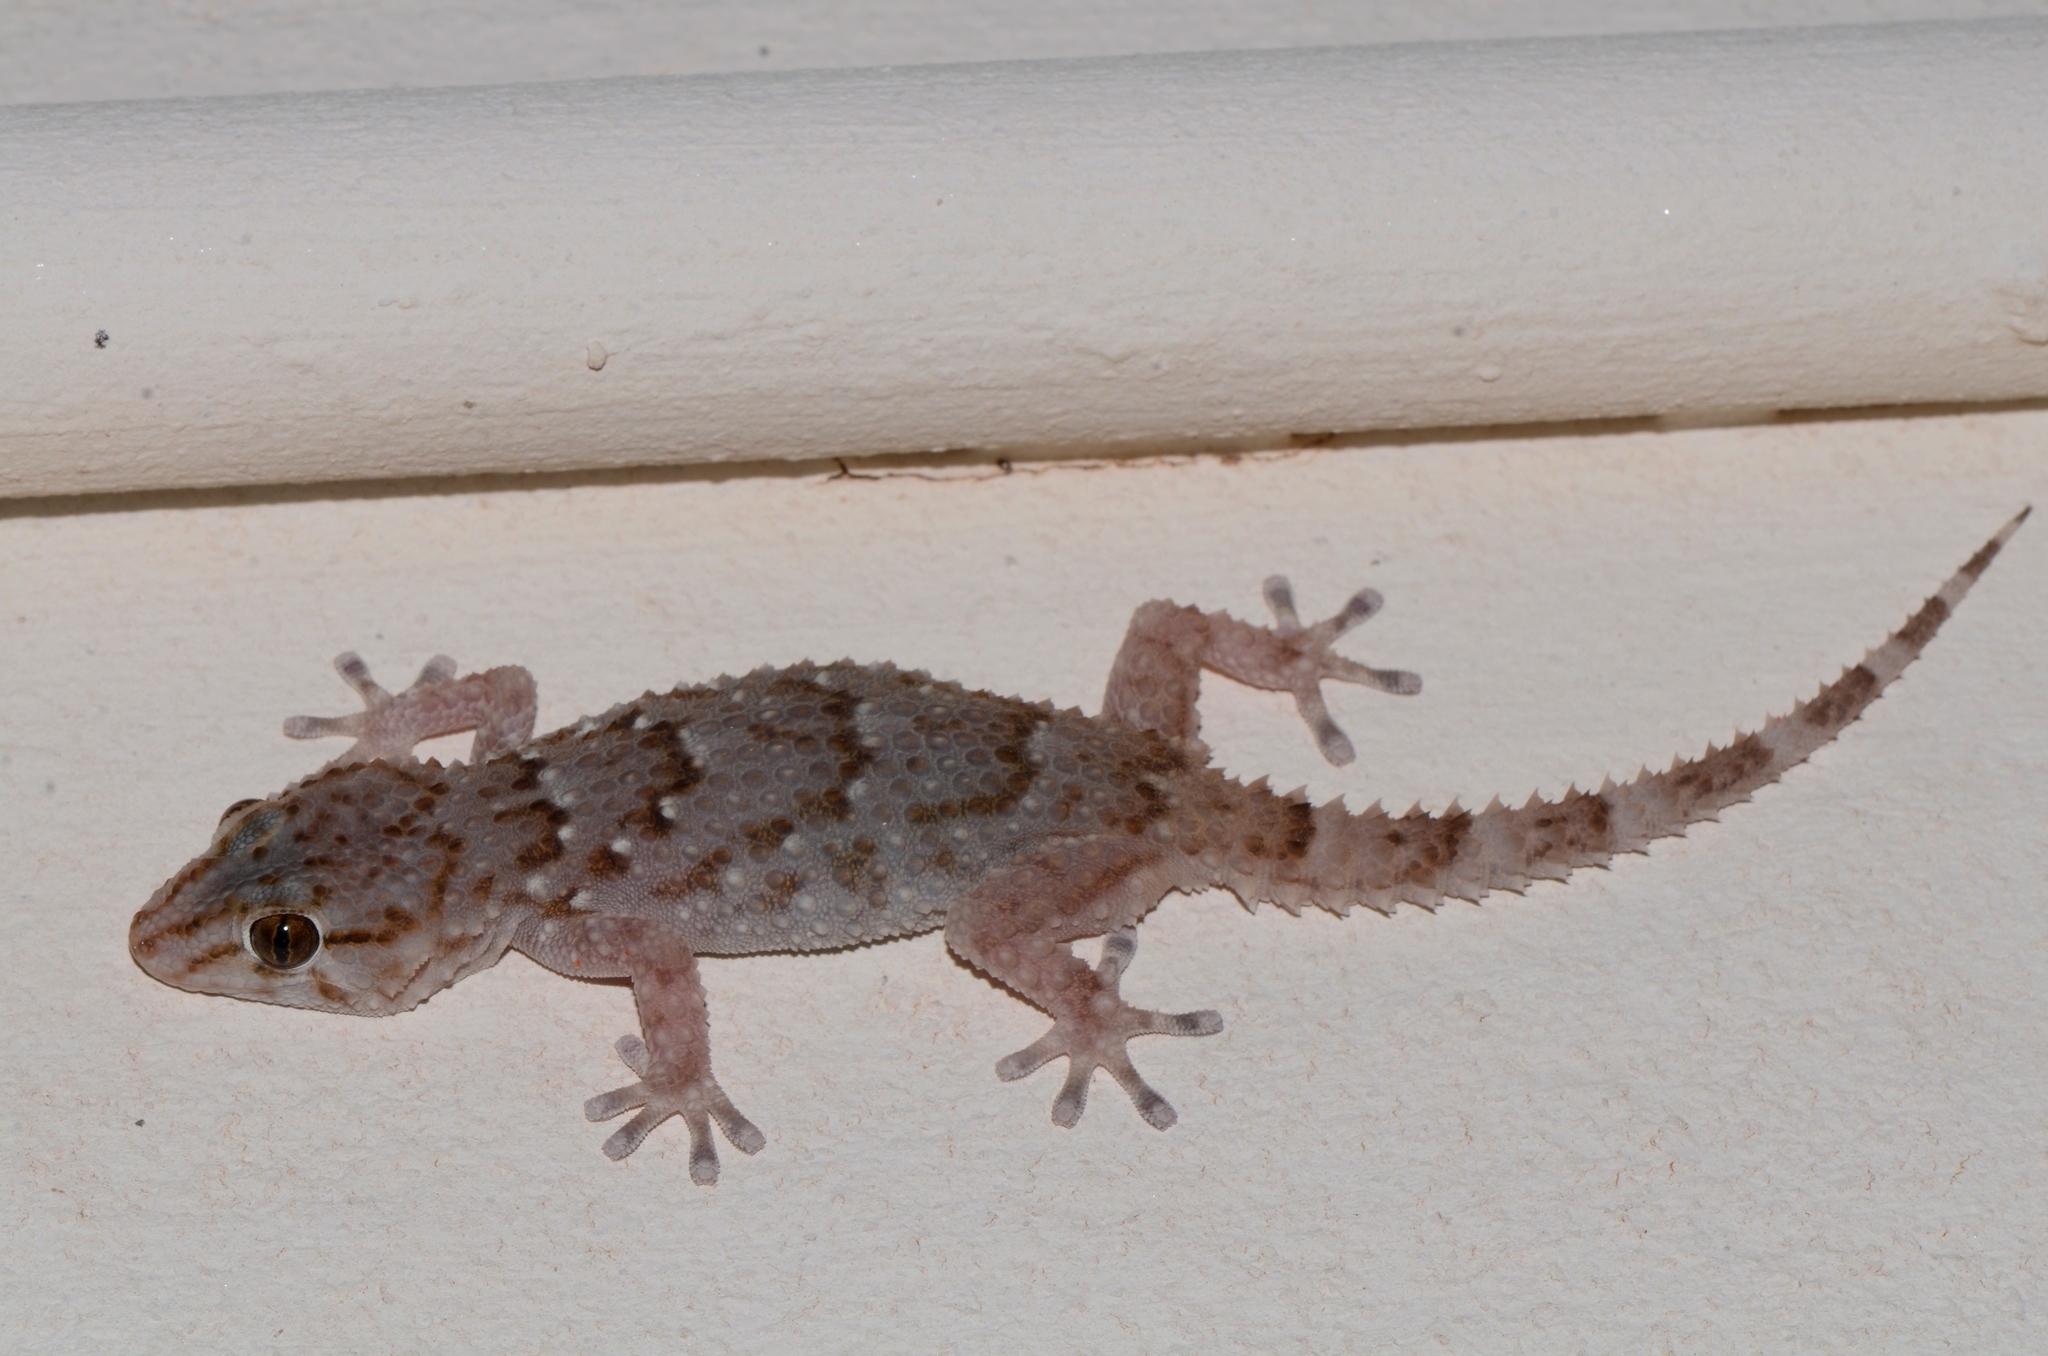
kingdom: Animalia
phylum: Chordata
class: Squamata
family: Gekkonidae
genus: Chondrodactylus
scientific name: Chondrodactylus bibronii
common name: Bibron's gecko
